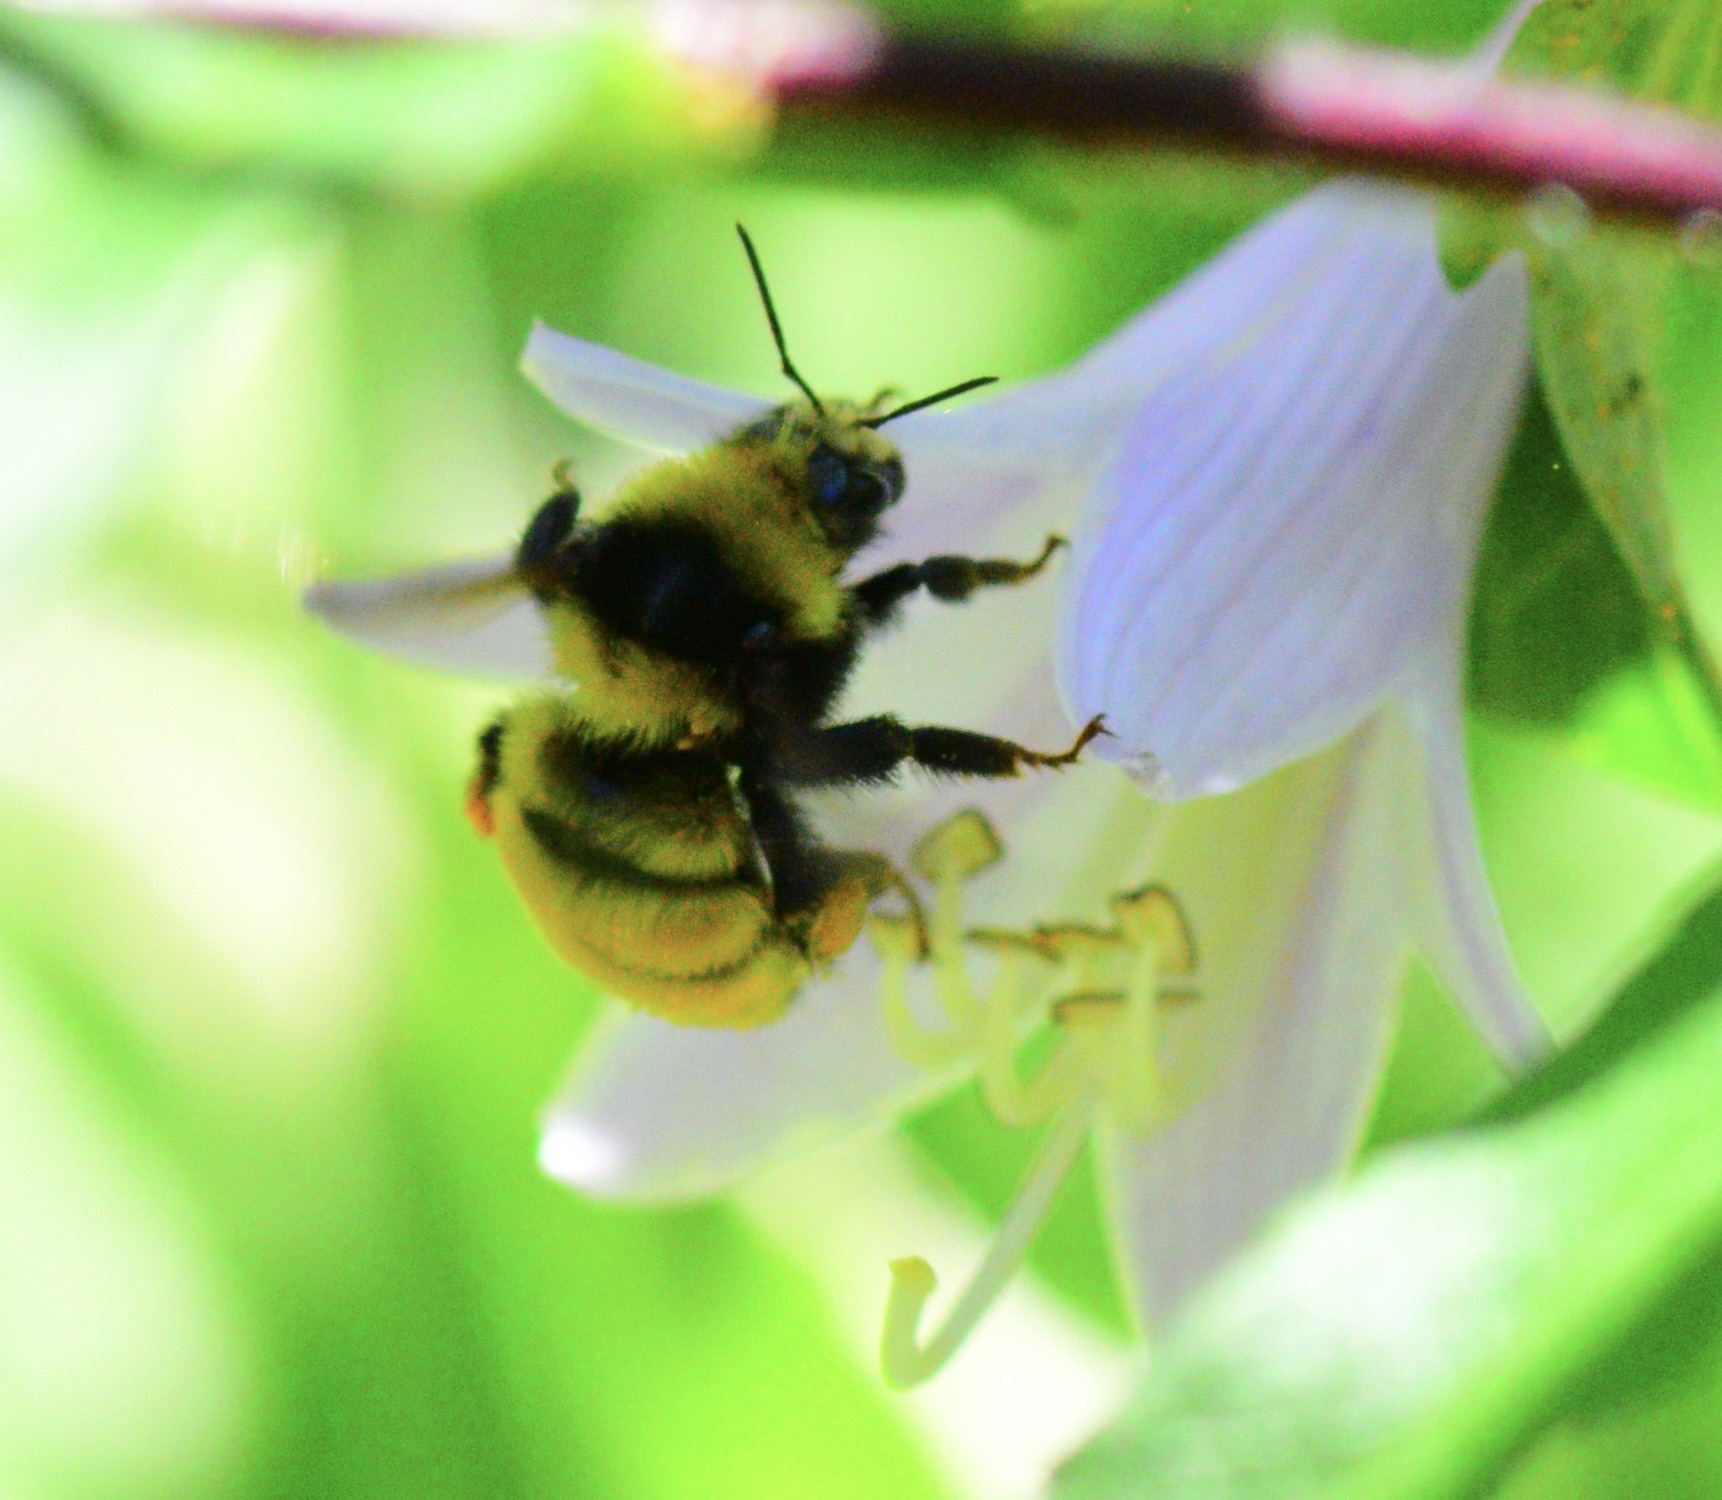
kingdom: Animalia
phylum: Arthropoda
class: Insecta
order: Hymenoptera
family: Apidae
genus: Bombus
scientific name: Bombus borealis
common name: Northern amber bumble bee
